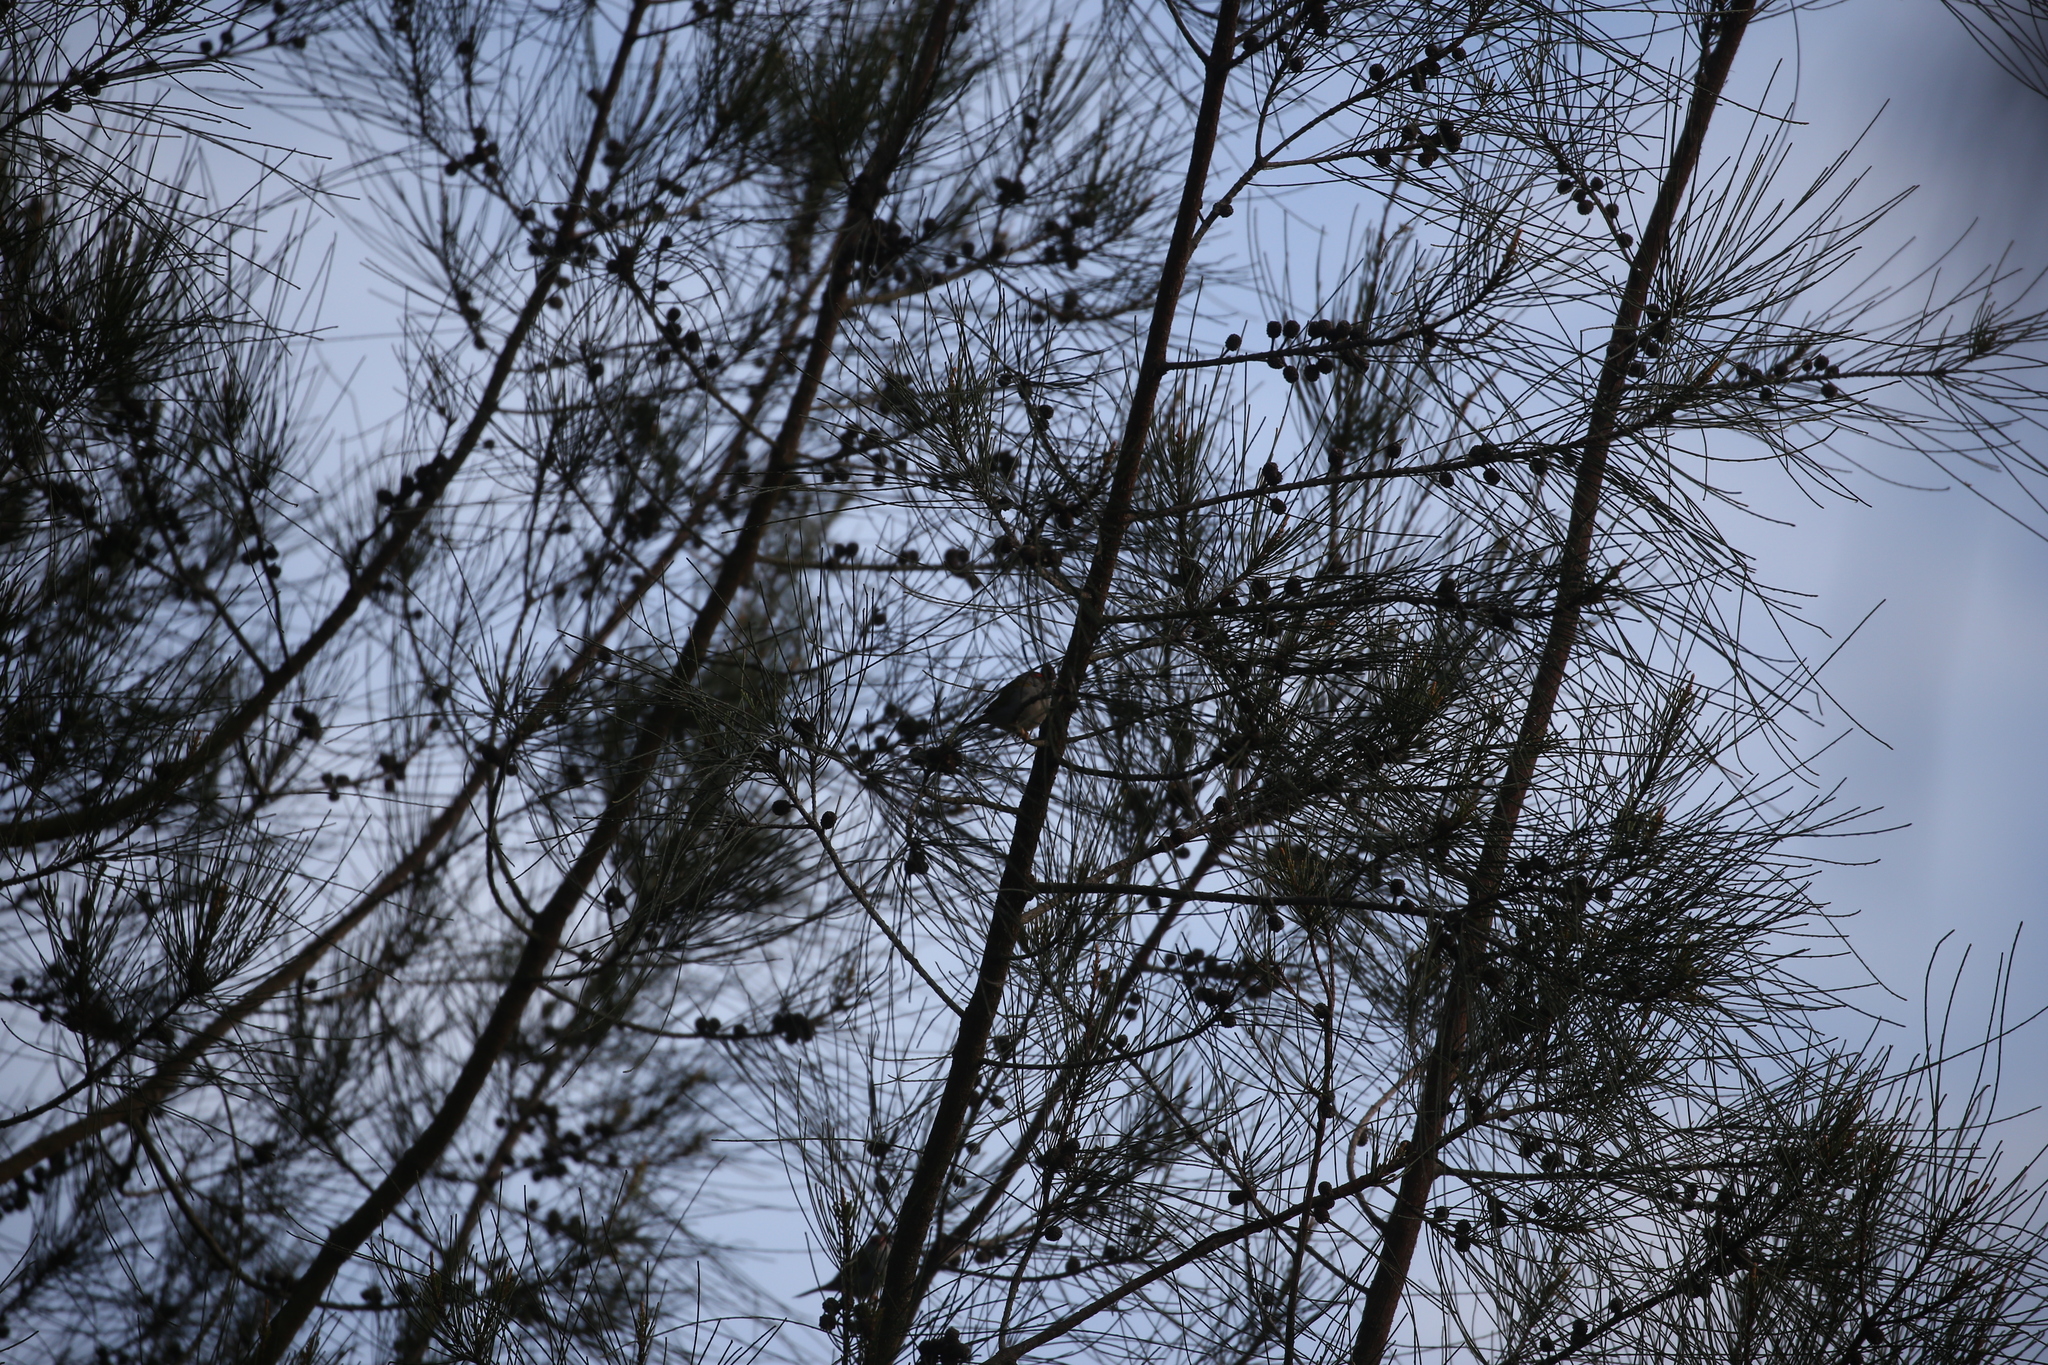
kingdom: Animalia
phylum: Chordata
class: Aves
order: Passeriformes
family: Estrildidae
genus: Neochmia
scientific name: Neochmia temporalis
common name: Red-browed finch
